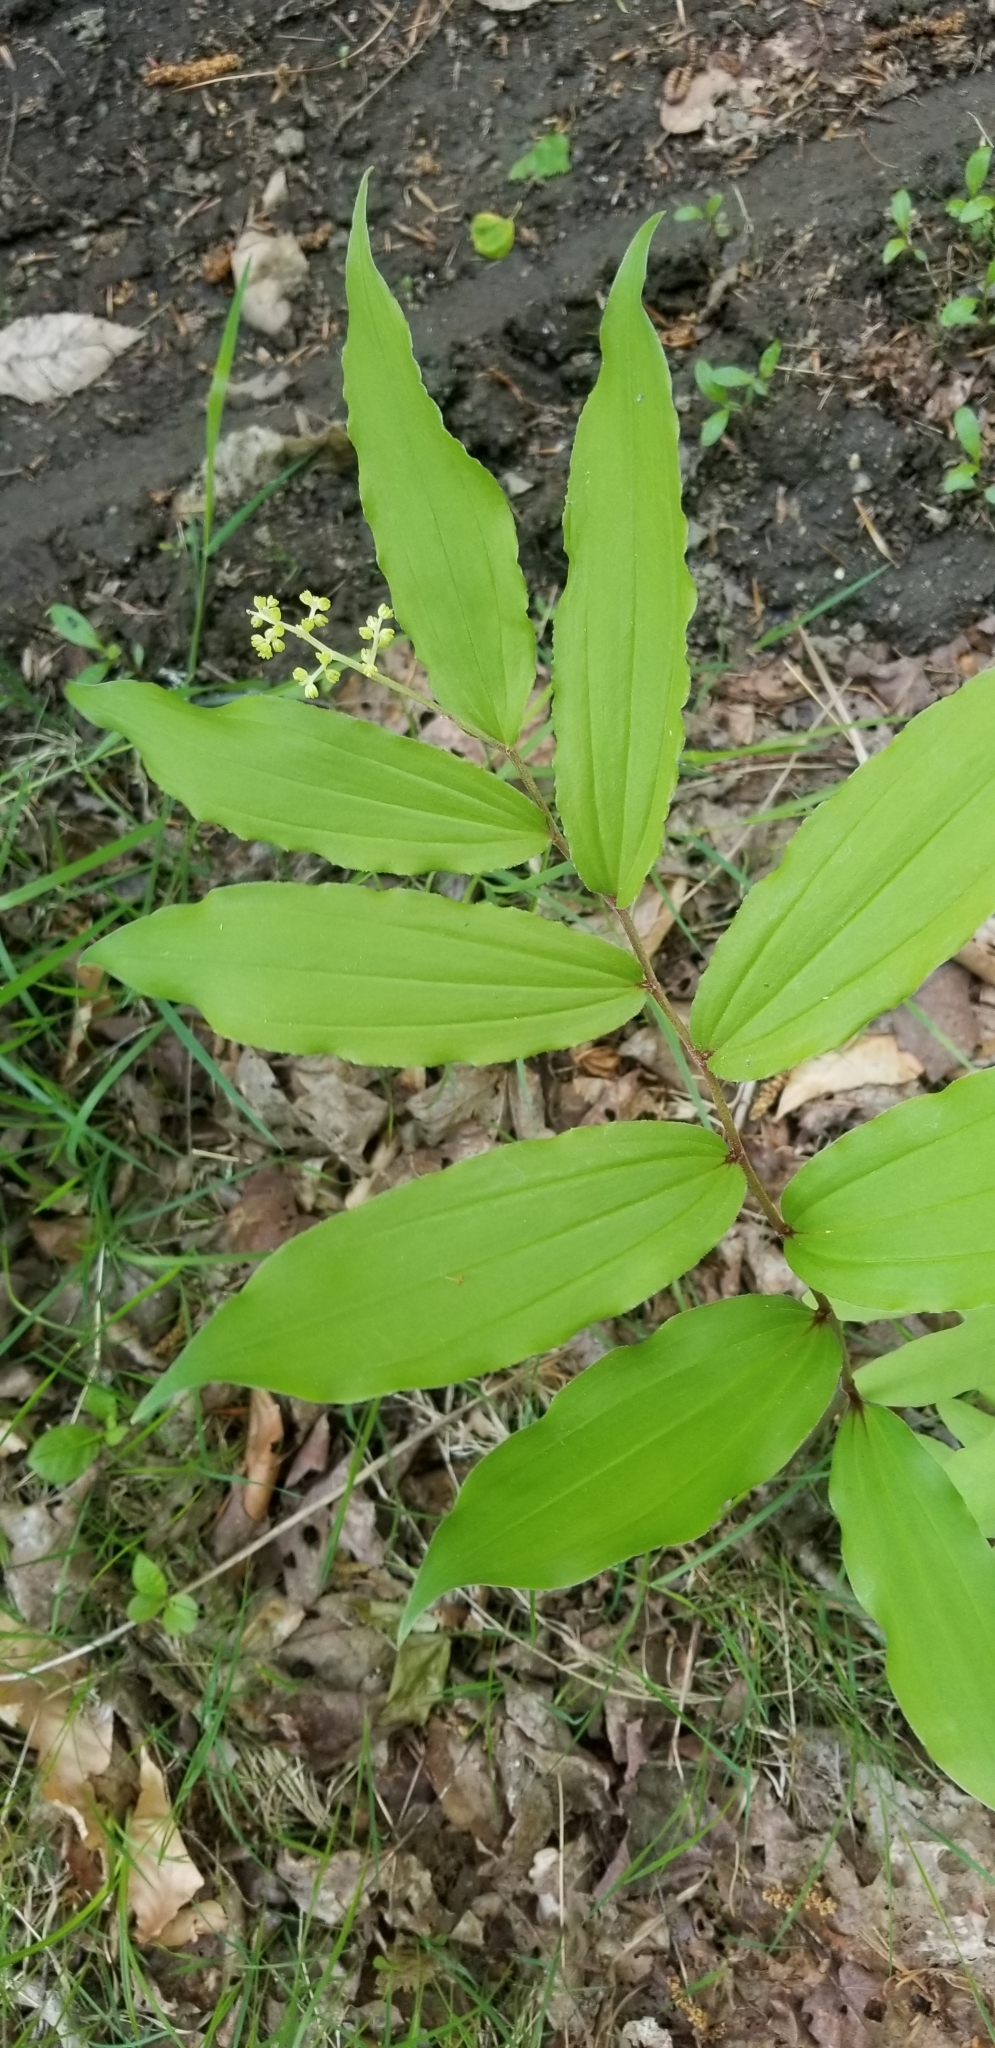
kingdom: Plantae
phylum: Tracheophyta
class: Liliopsida
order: Asparagales
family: Asparagaceae
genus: Maianthemum
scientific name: Maianthemum racemosum
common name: False spikenard
